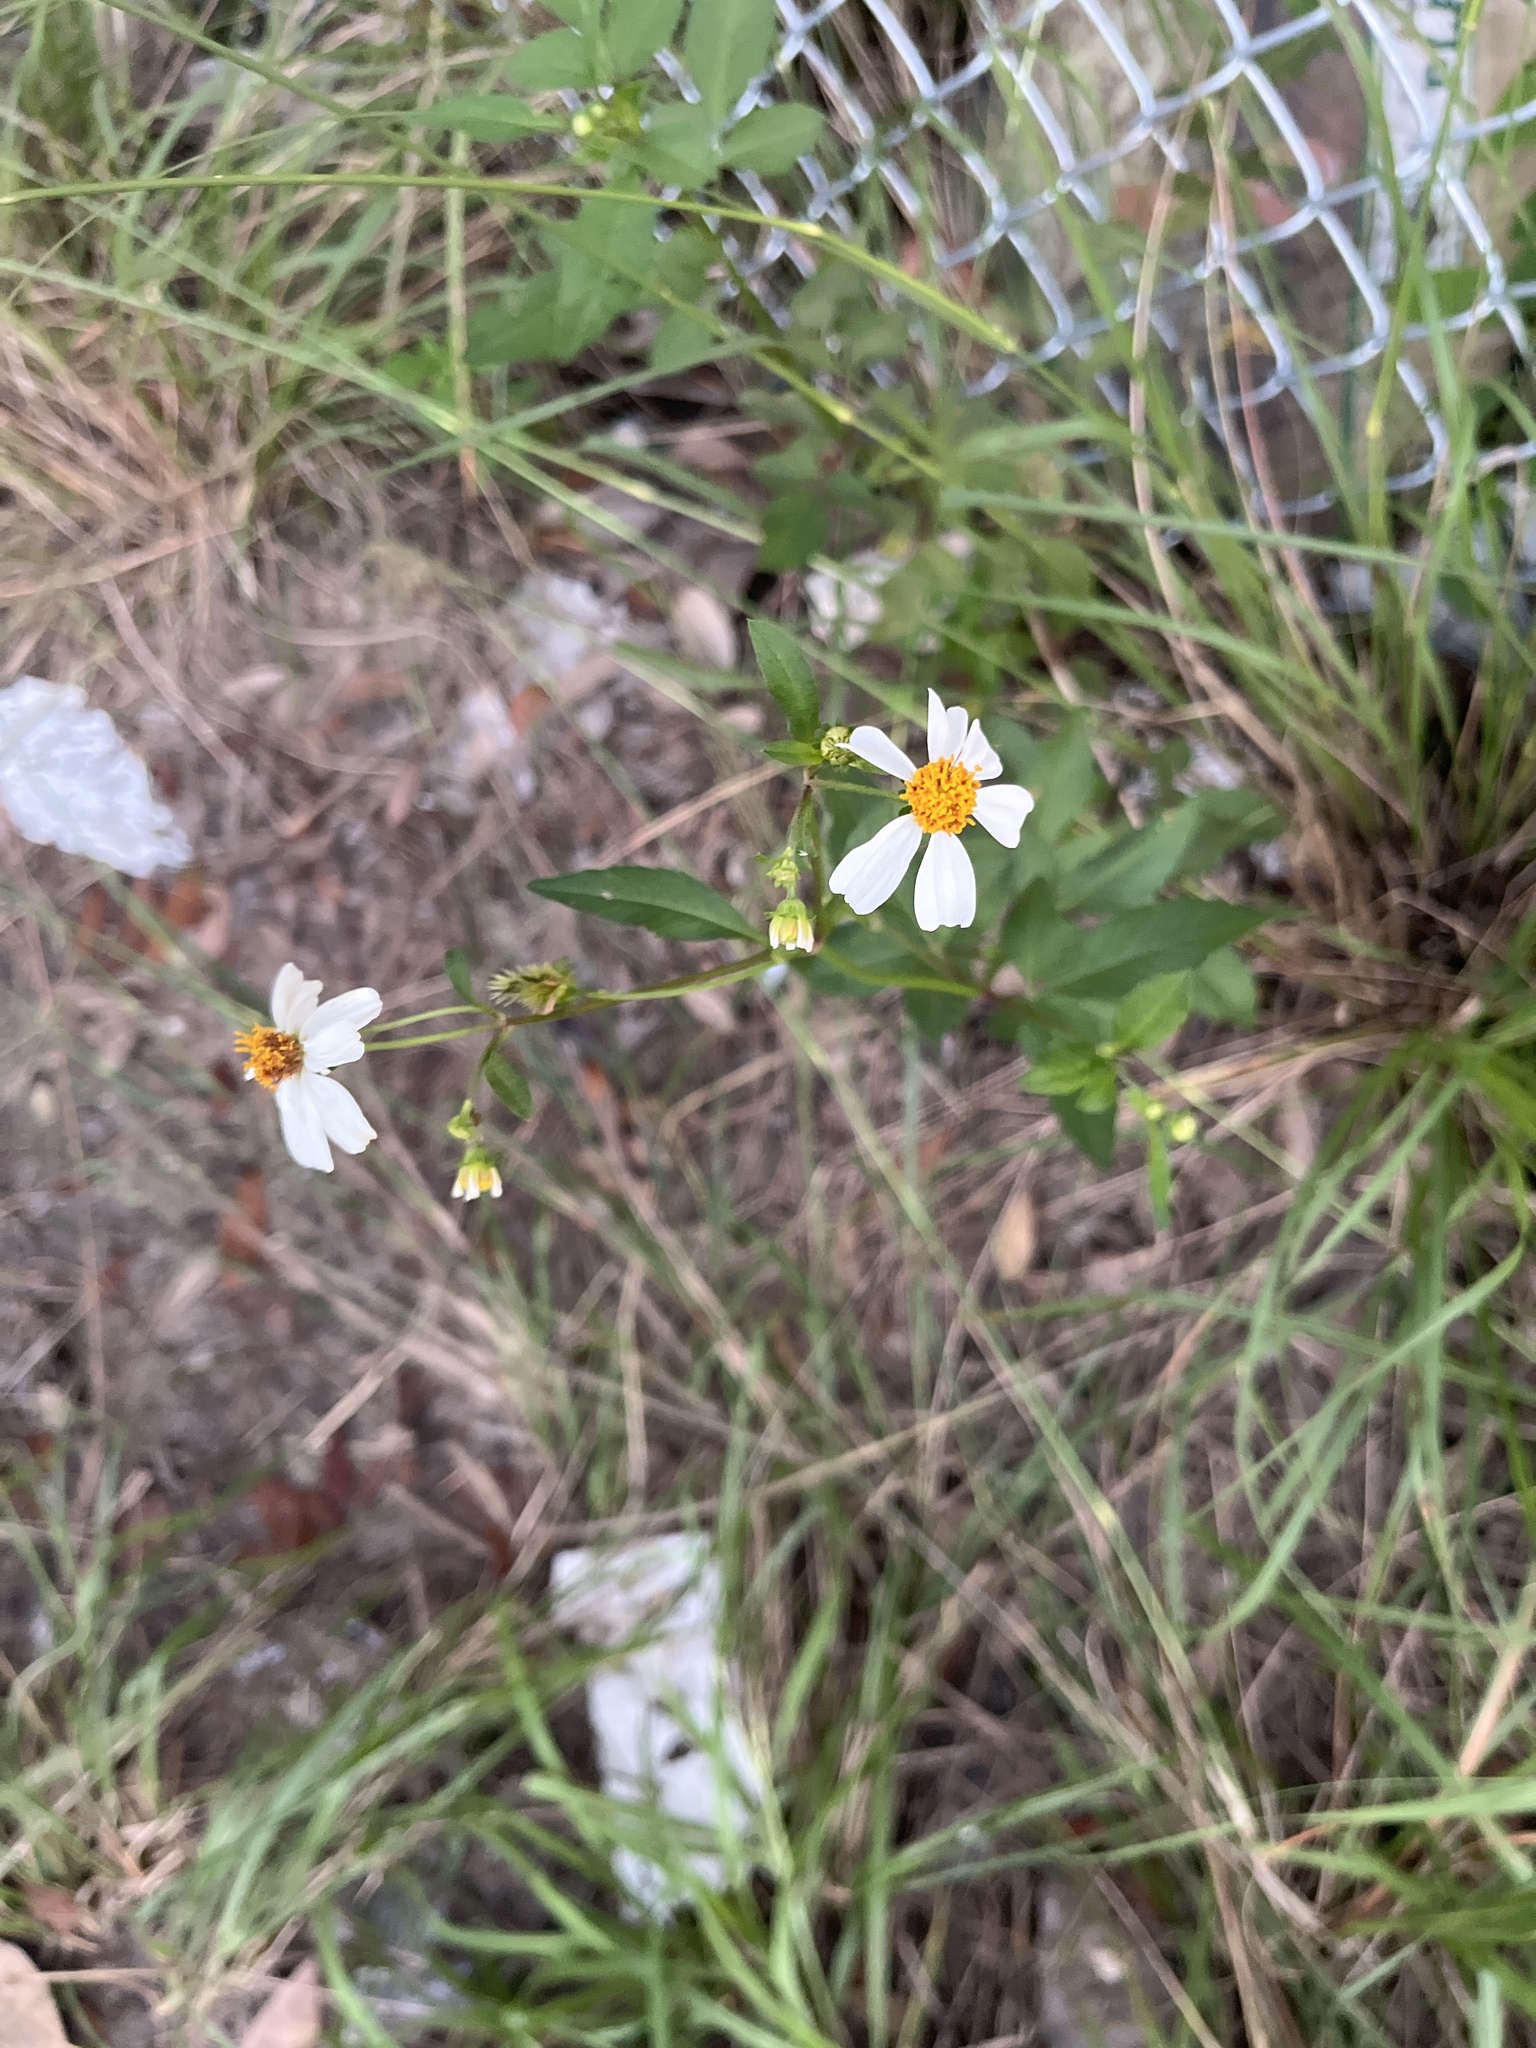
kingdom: Plantae
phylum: Tracheophyta
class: Magnoliopsida
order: Asterales
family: Asteraceae
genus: Bidens
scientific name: Bidens alba
